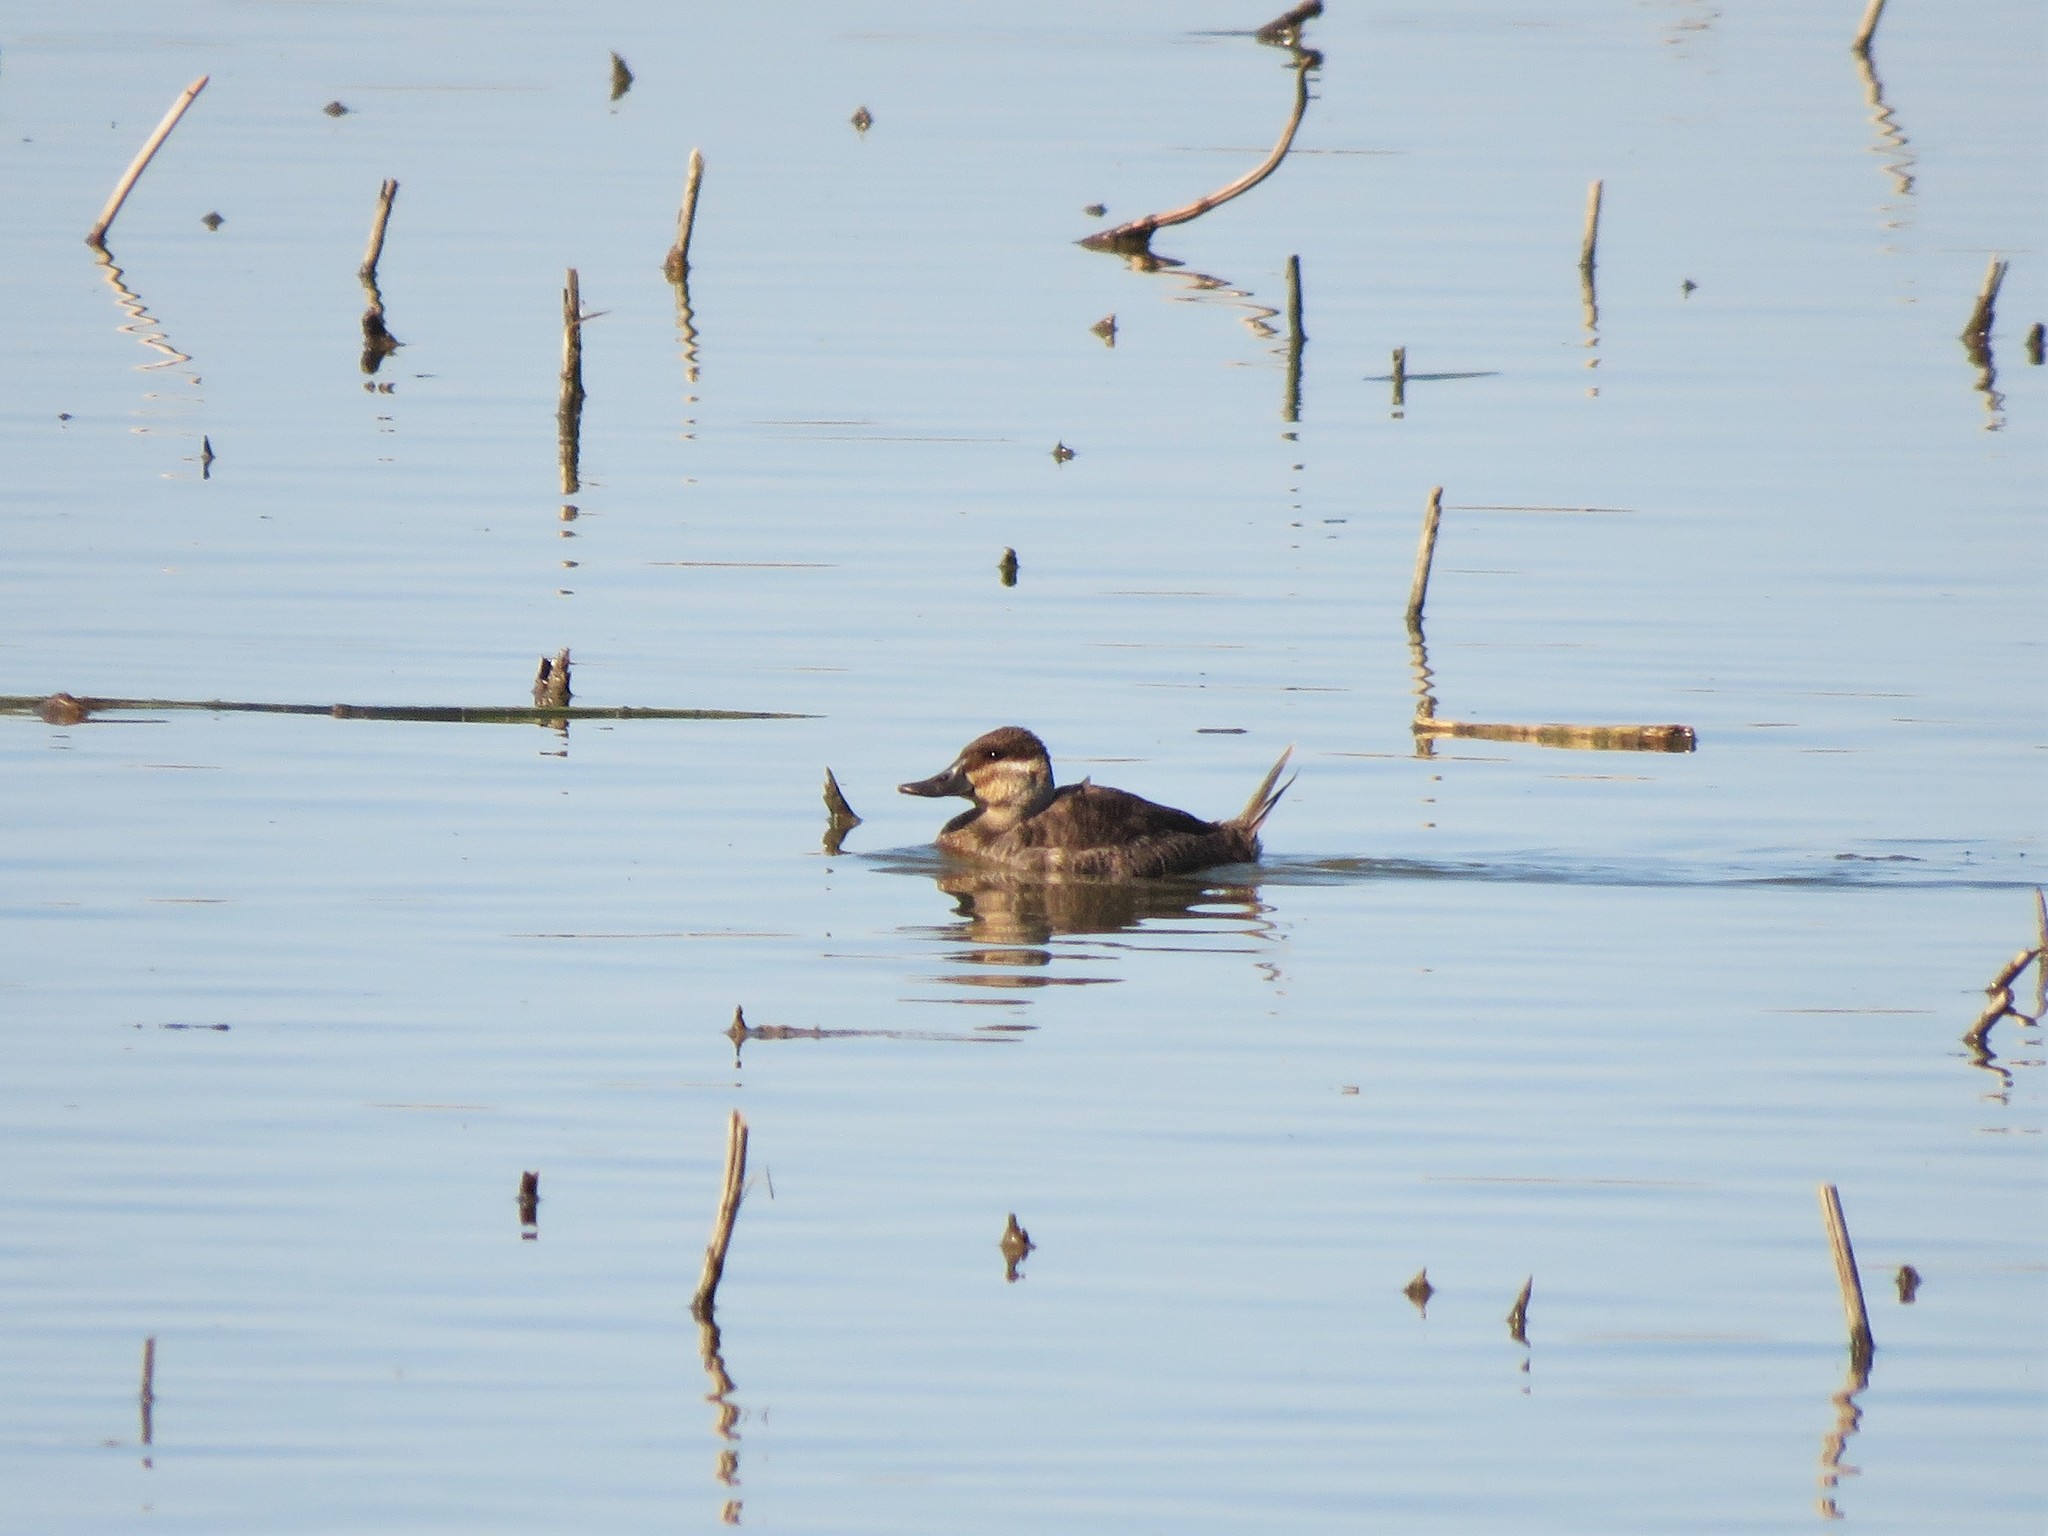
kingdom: Animalia
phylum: Chordata
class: Aves
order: Anseriformes
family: Anatidae
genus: Oxyura
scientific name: Oxyura jamaicensis
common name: Ruddy duck
